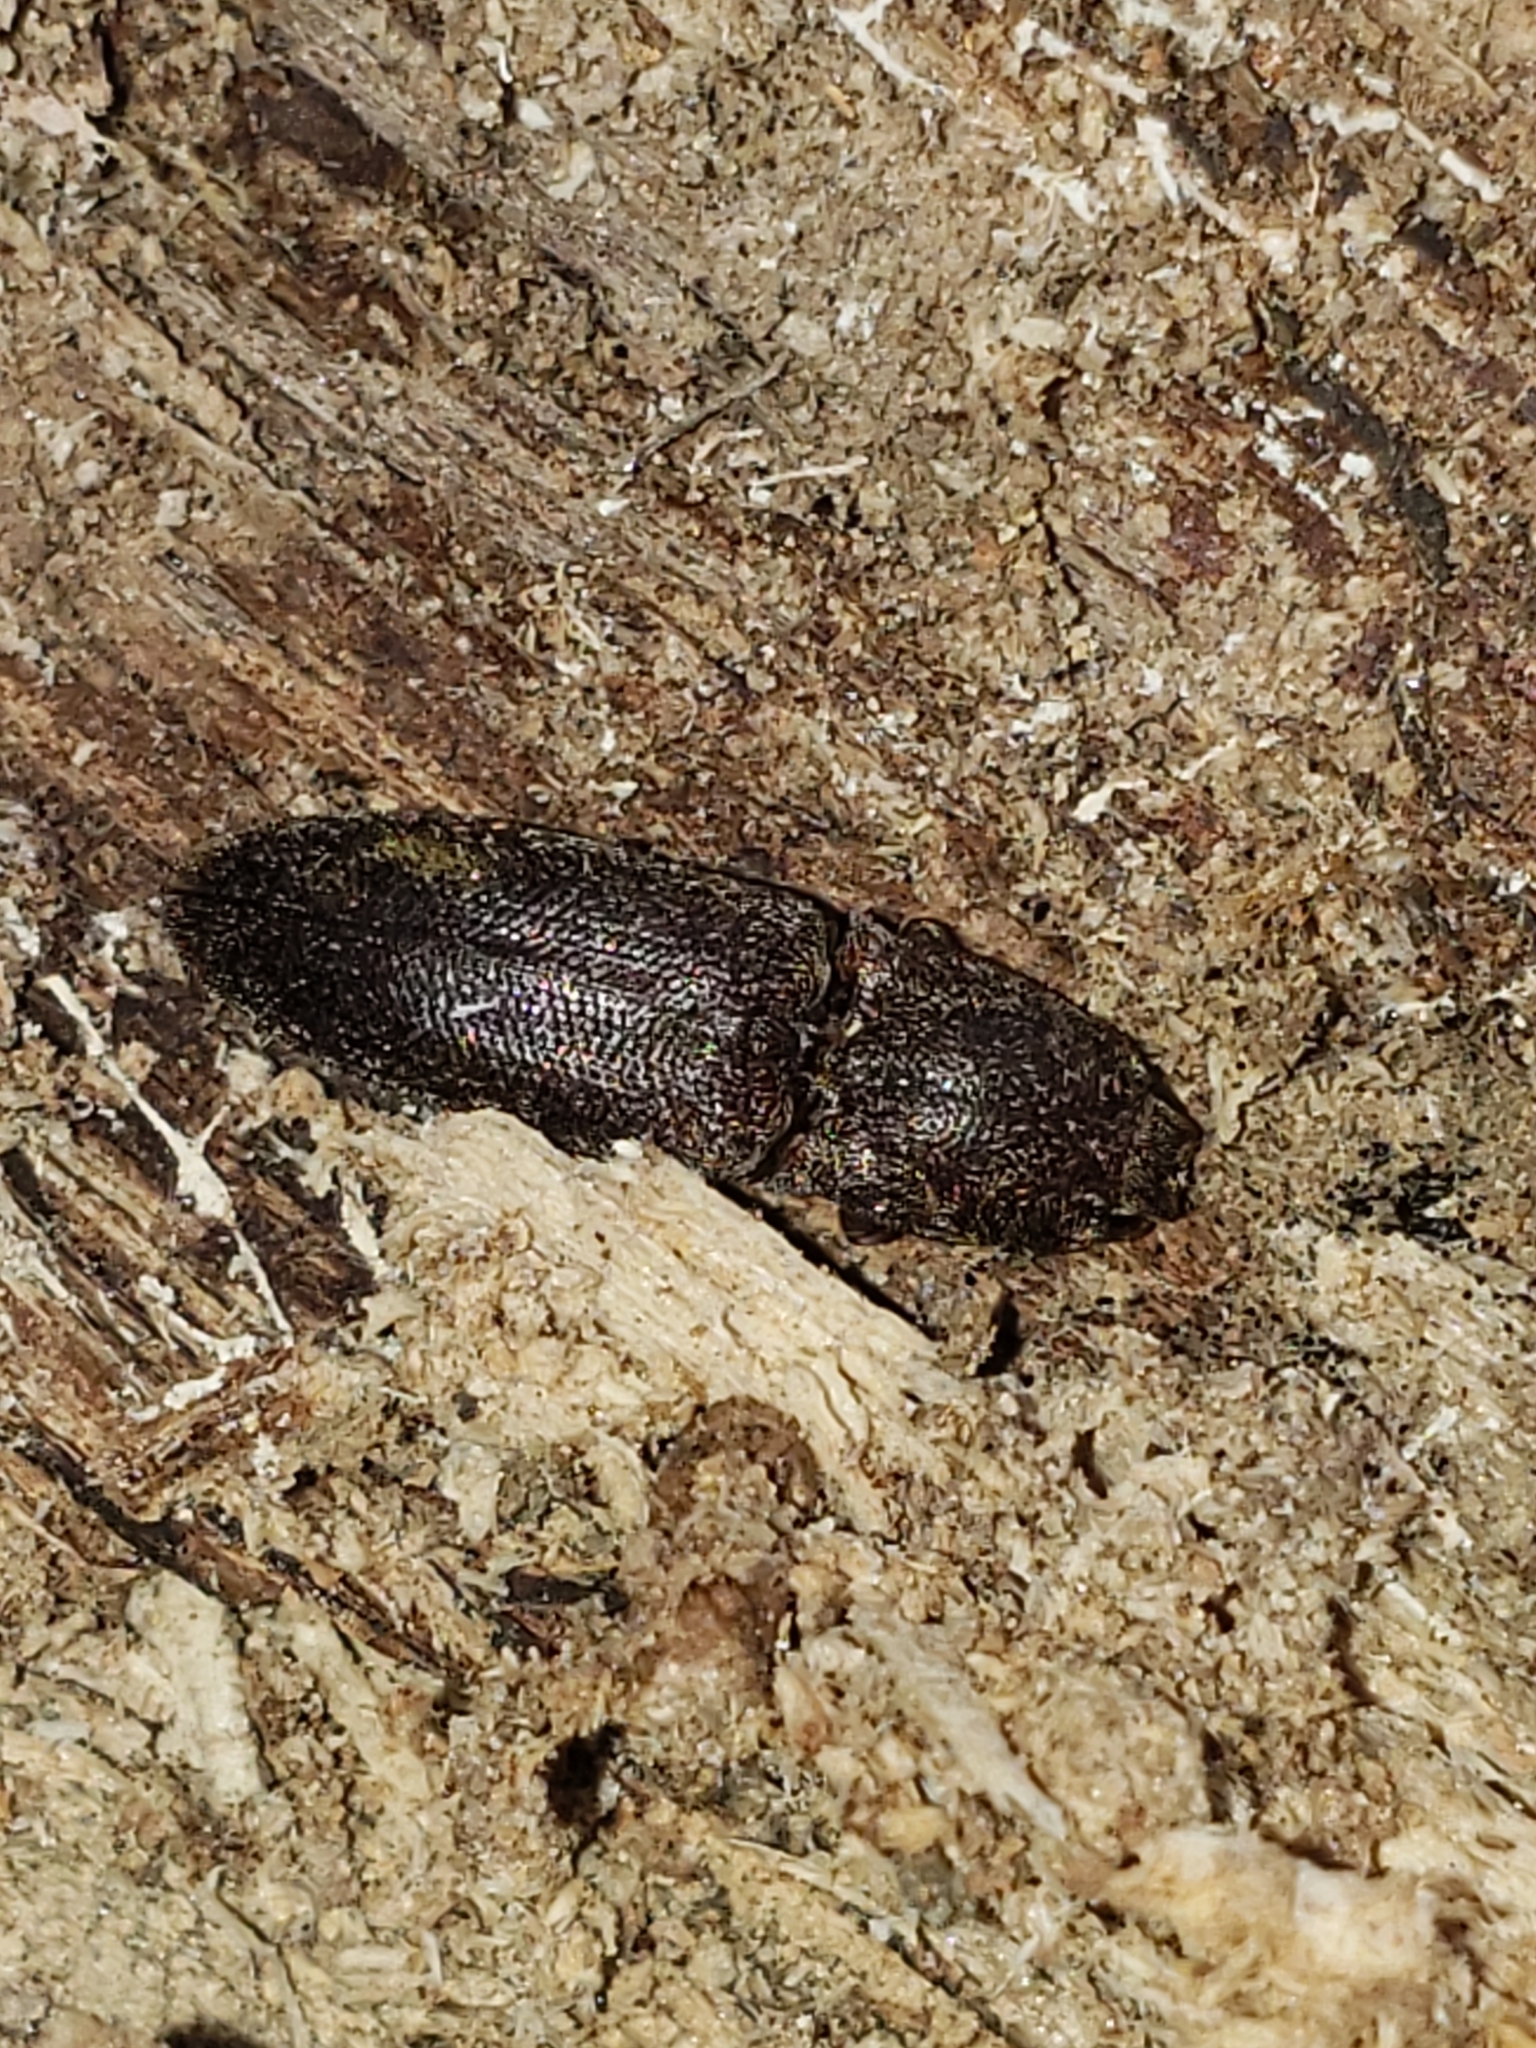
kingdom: Animalia
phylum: Arthropoda
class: Insecta
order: Coleoptera
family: Elateridae
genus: Lacon
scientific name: Lacon impressicollis
